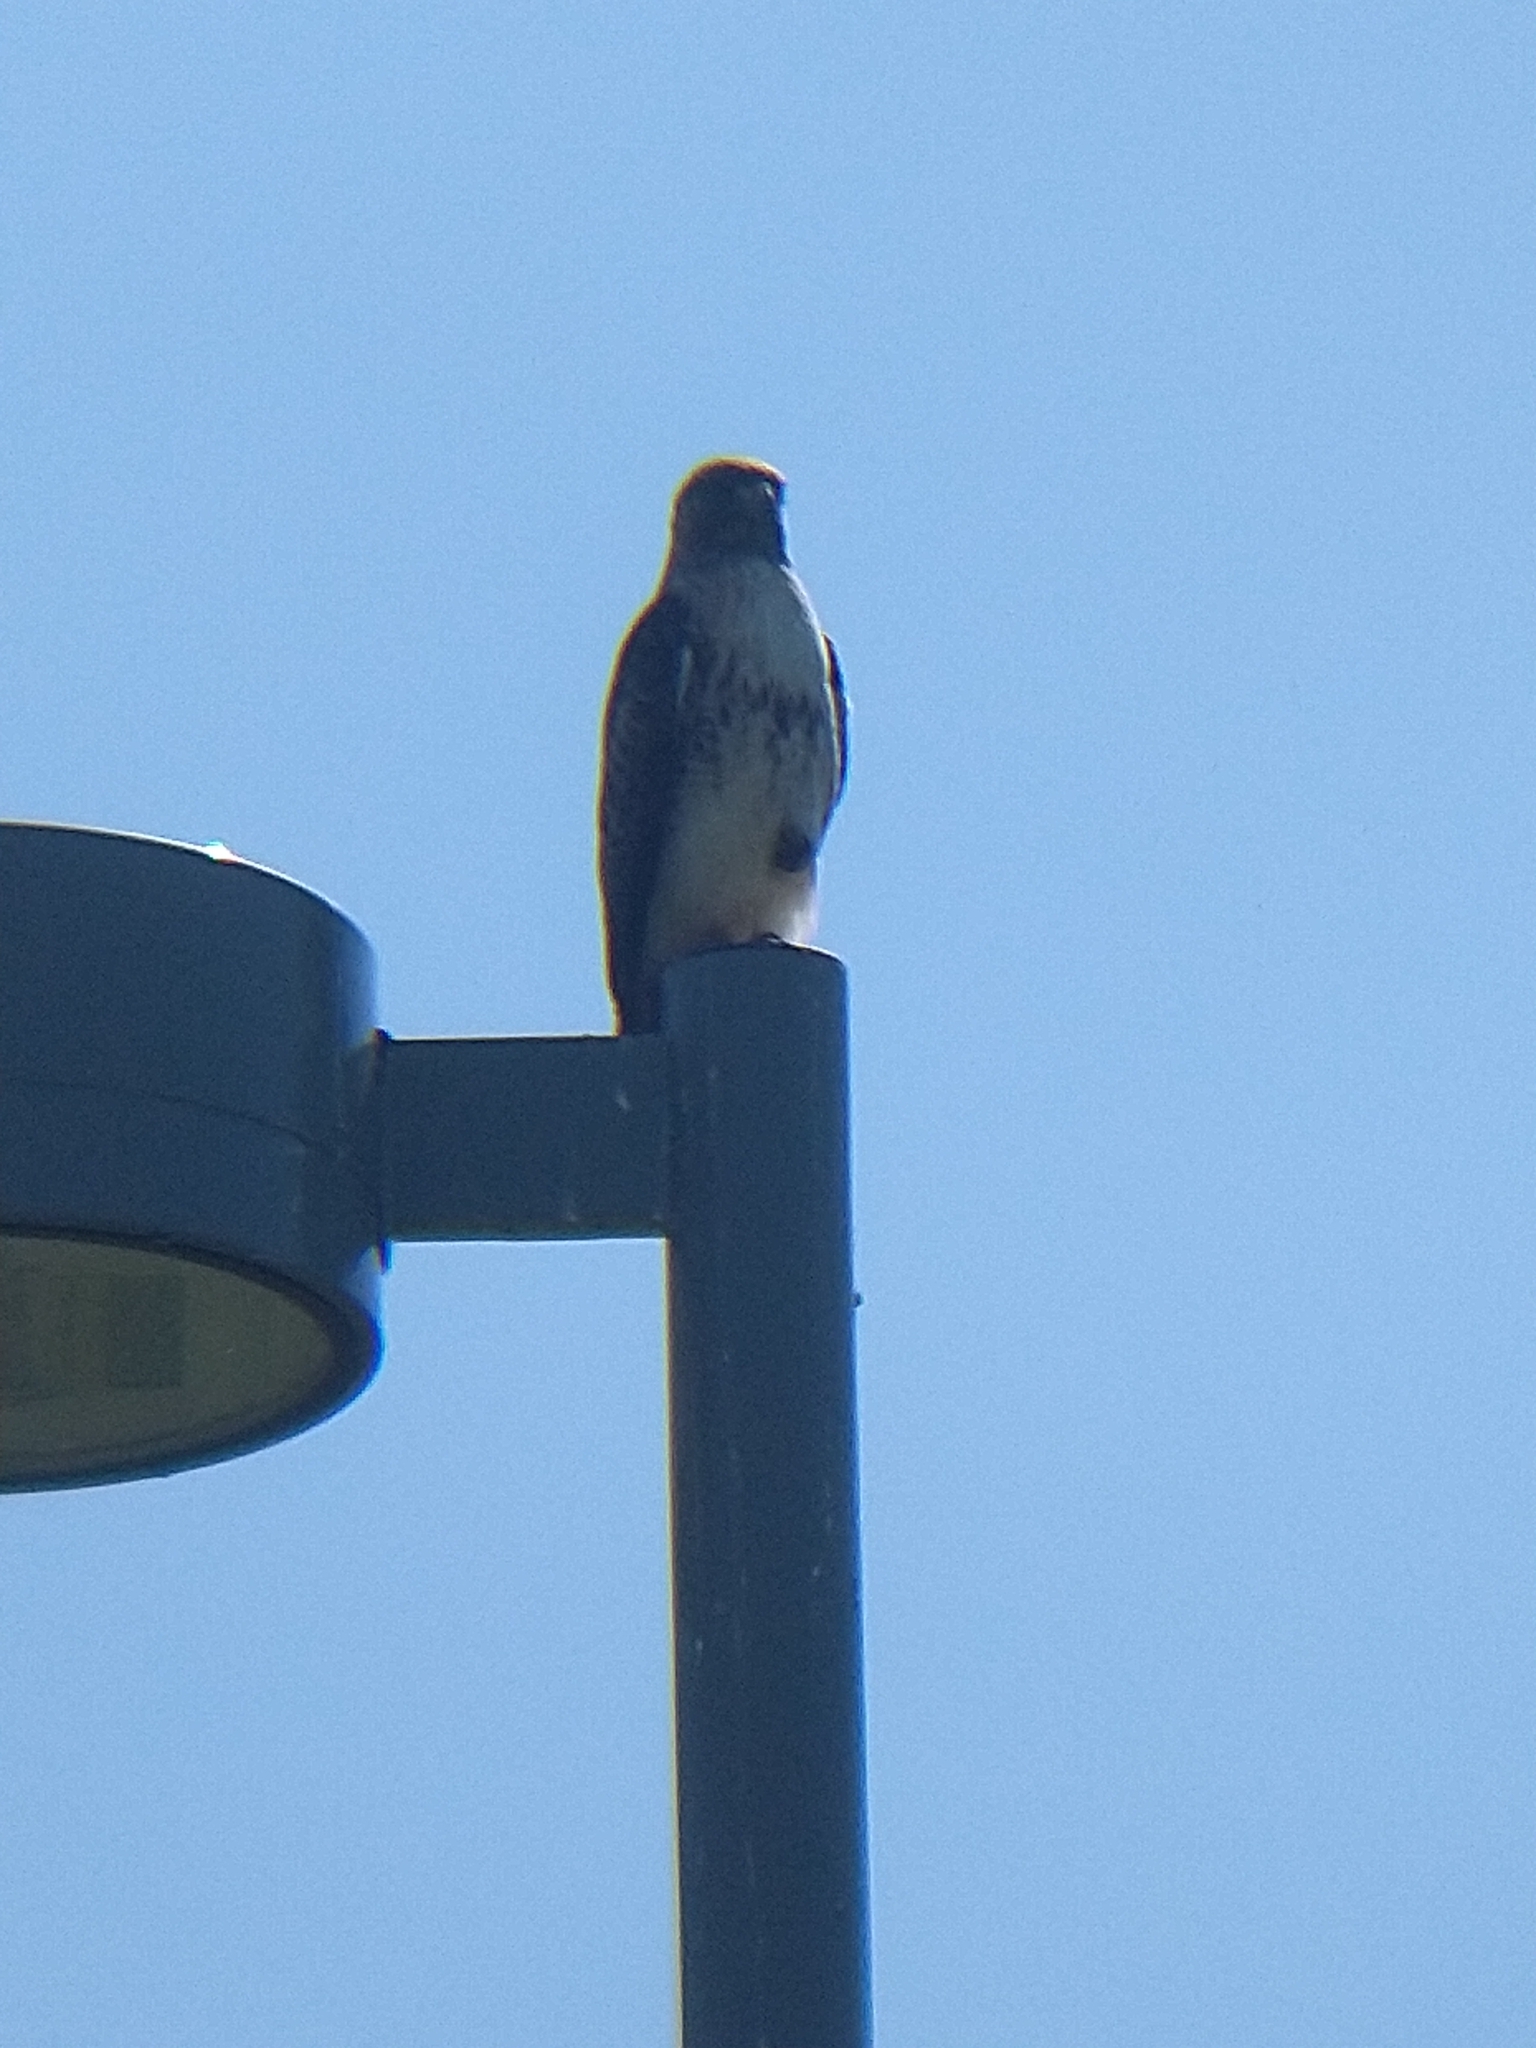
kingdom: Animalia
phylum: Chordata
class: Aves
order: Accipitriformes
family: Accipitridae
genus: Buteo
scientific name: Buteo jamaicensis
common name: Red-tailed hawk
